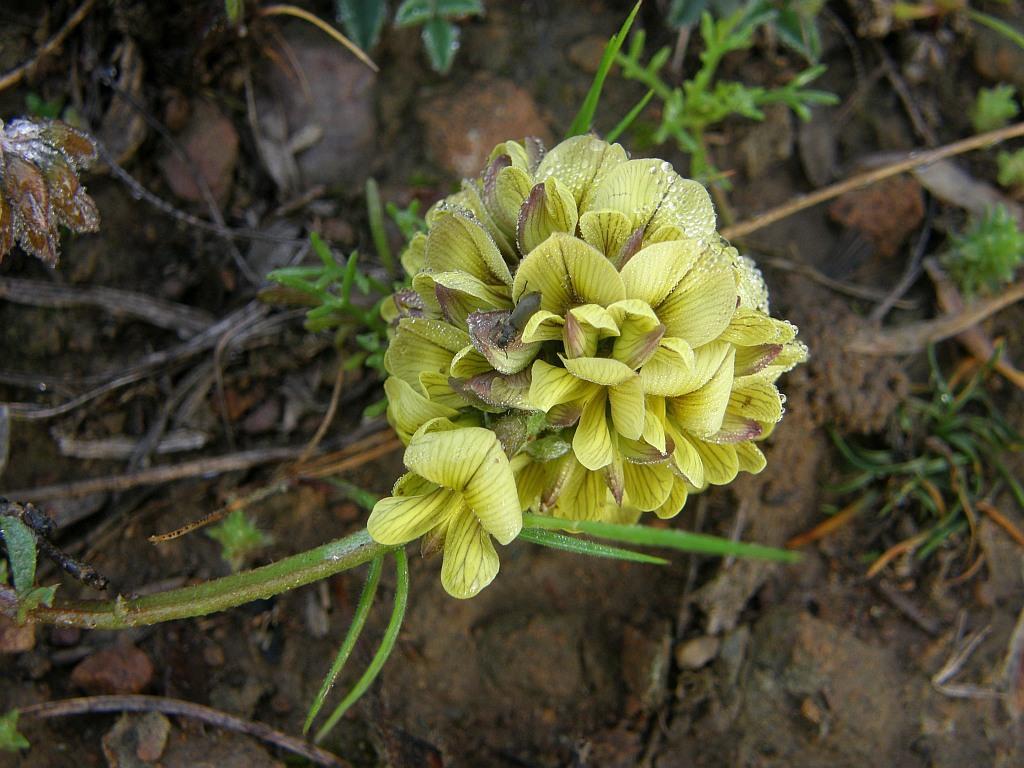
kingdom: Plantae
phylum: Tracheophyta
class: Magnoliopsida
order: Fabales
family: Fabaceae
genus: Lotononis
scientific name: Lotononis umbellata
